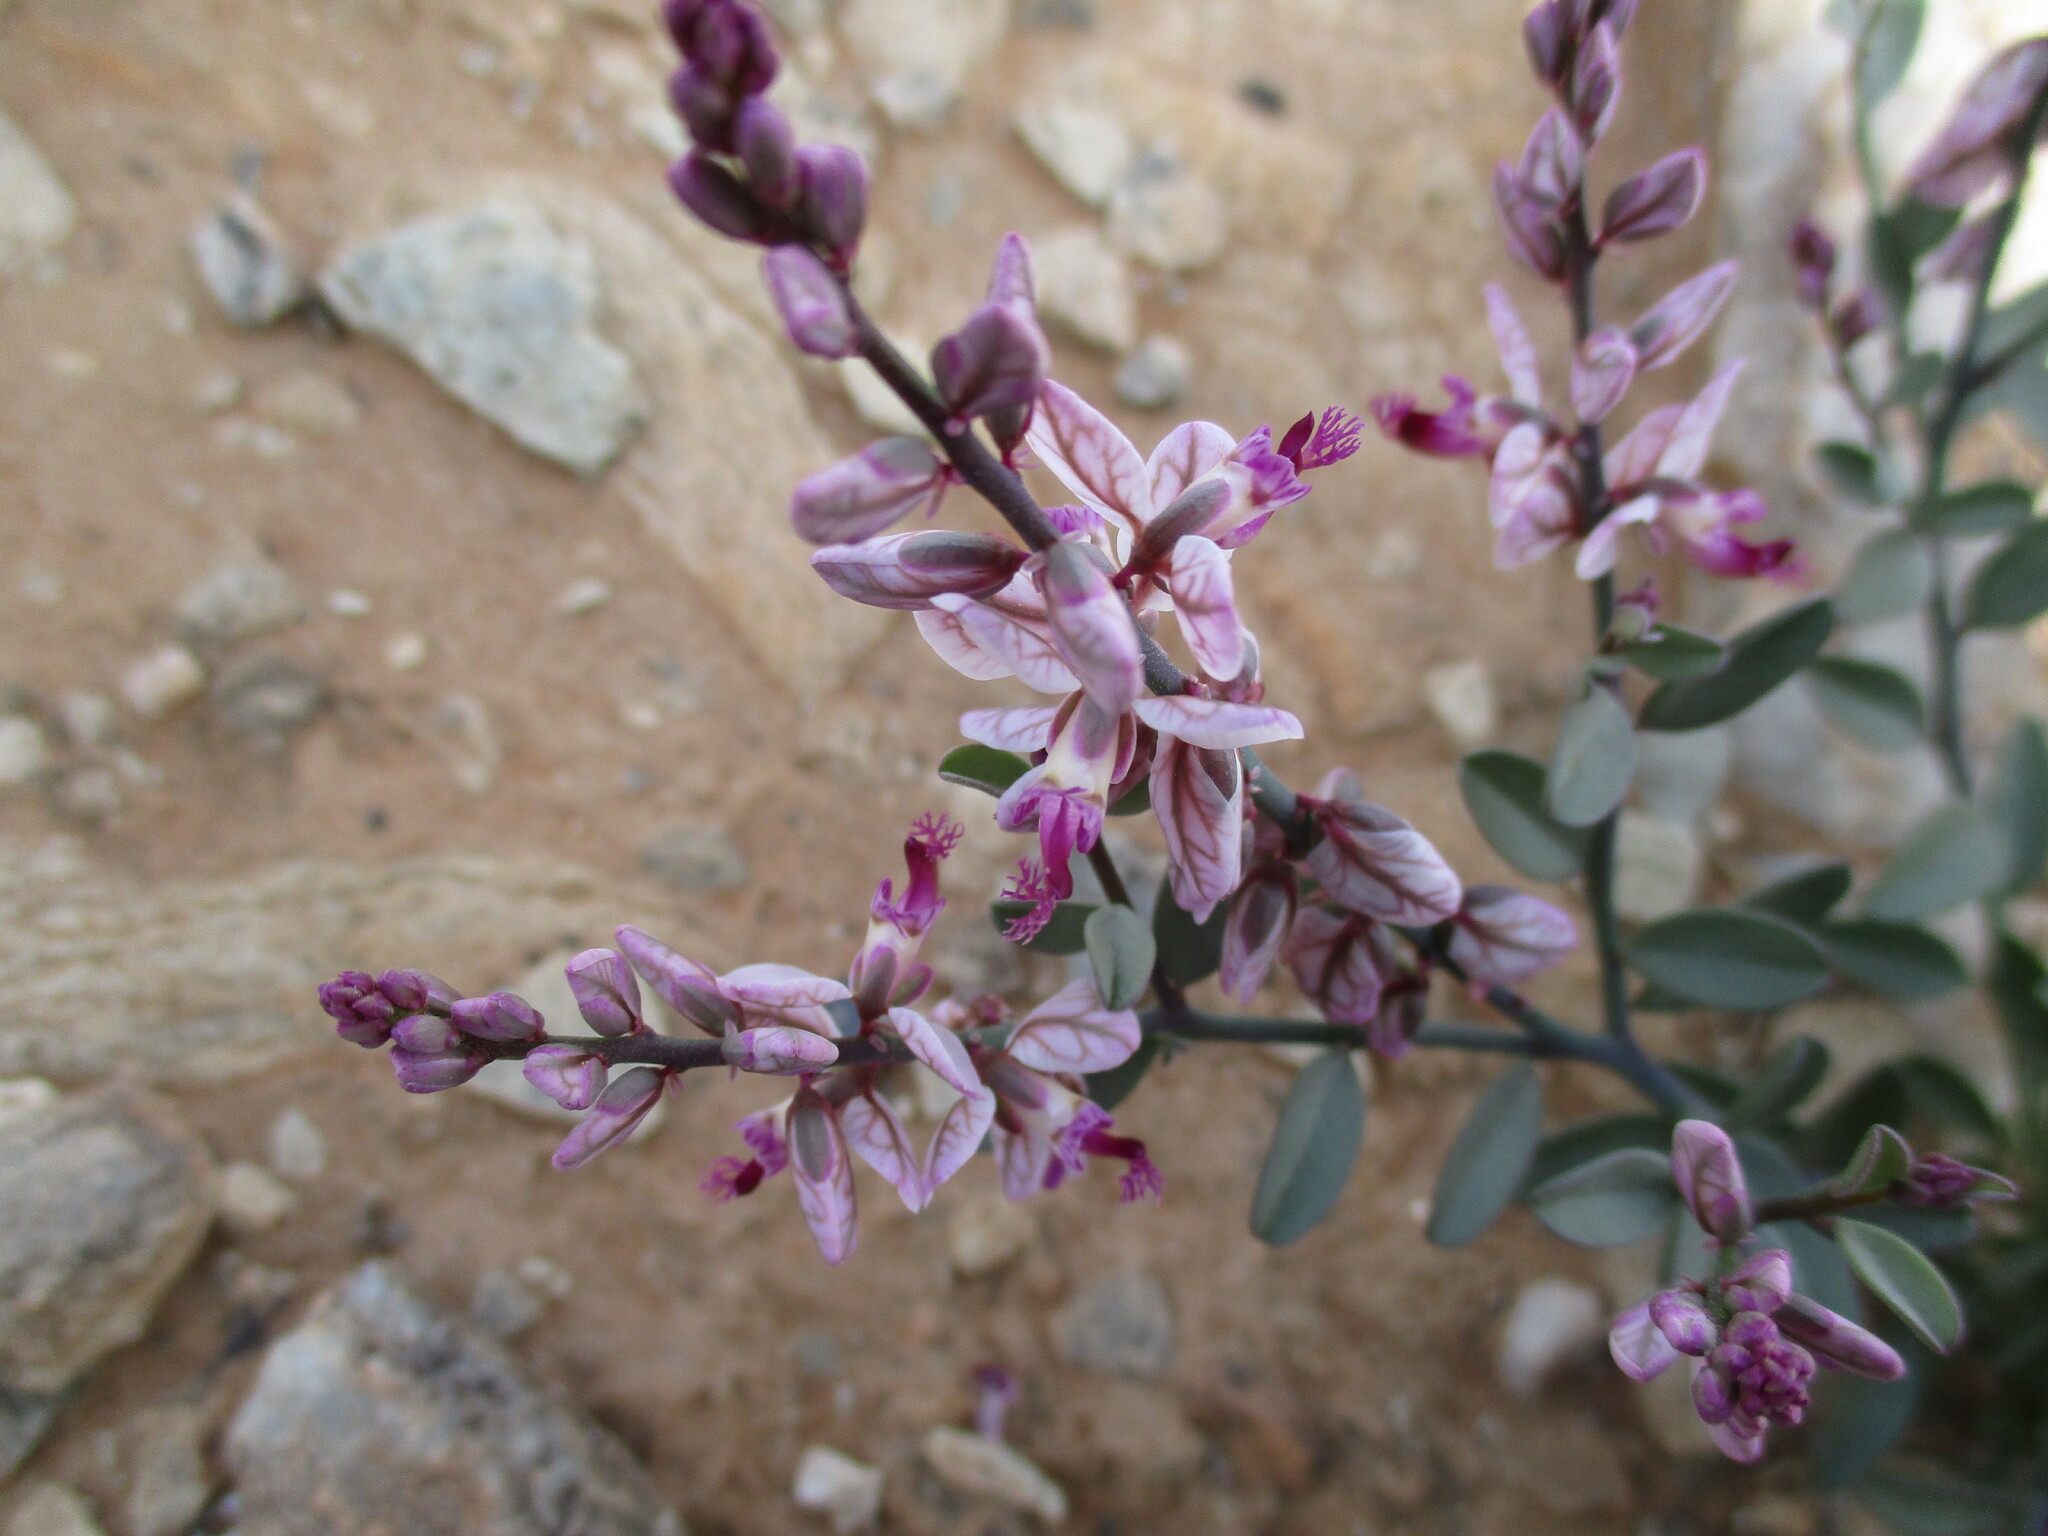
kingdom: Plantae
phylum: Tracheophyta
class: Magnoliopsida
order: Fabales
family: Polygalaceae
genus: Polygala
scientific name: Polygala mossii
